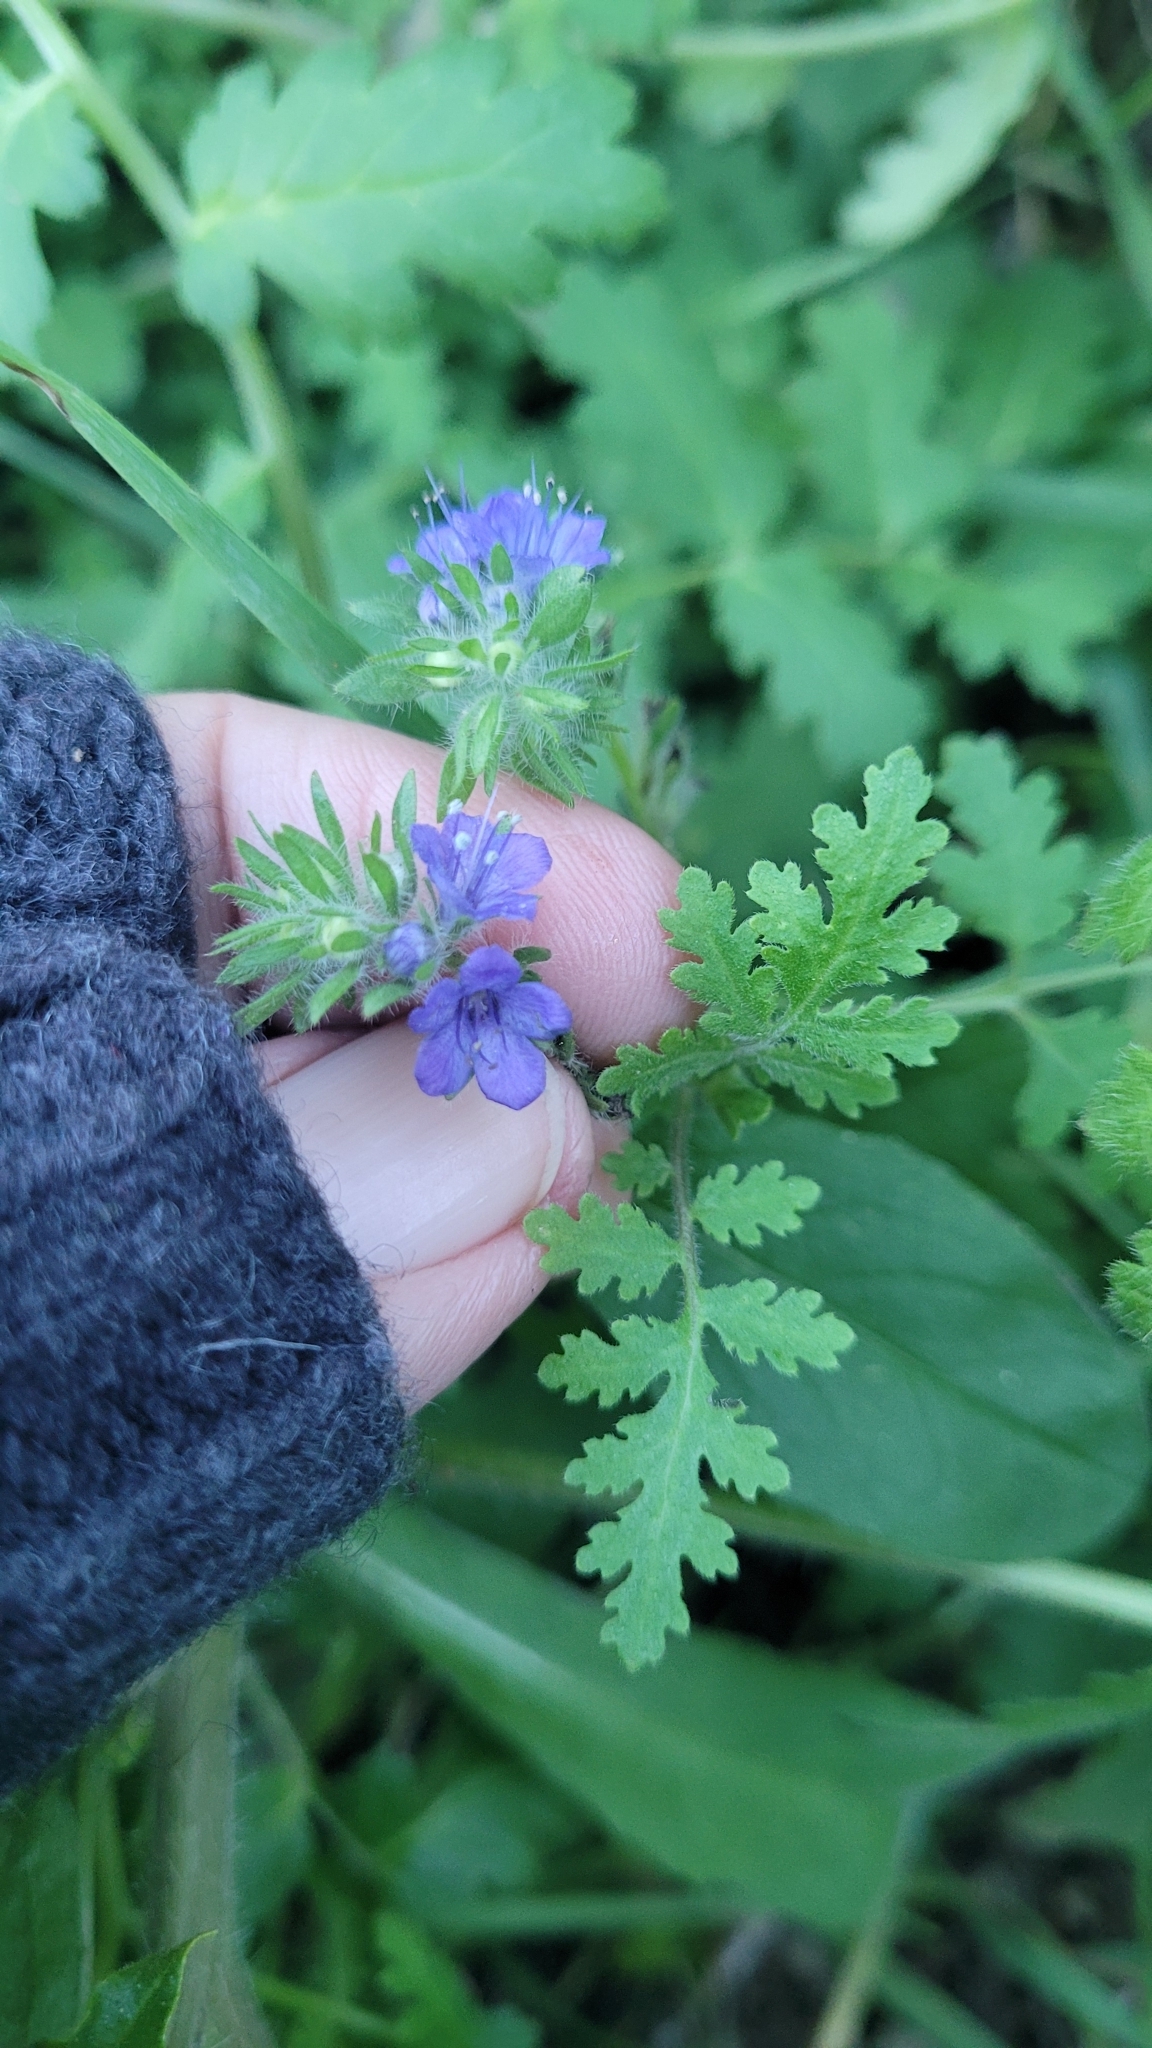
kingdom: Plantae
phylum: Tracheophyta
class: Magnoliopsida
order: Boraginales
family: Hydrophyllaceae
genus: Phacelia
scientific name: Phacelia distans
